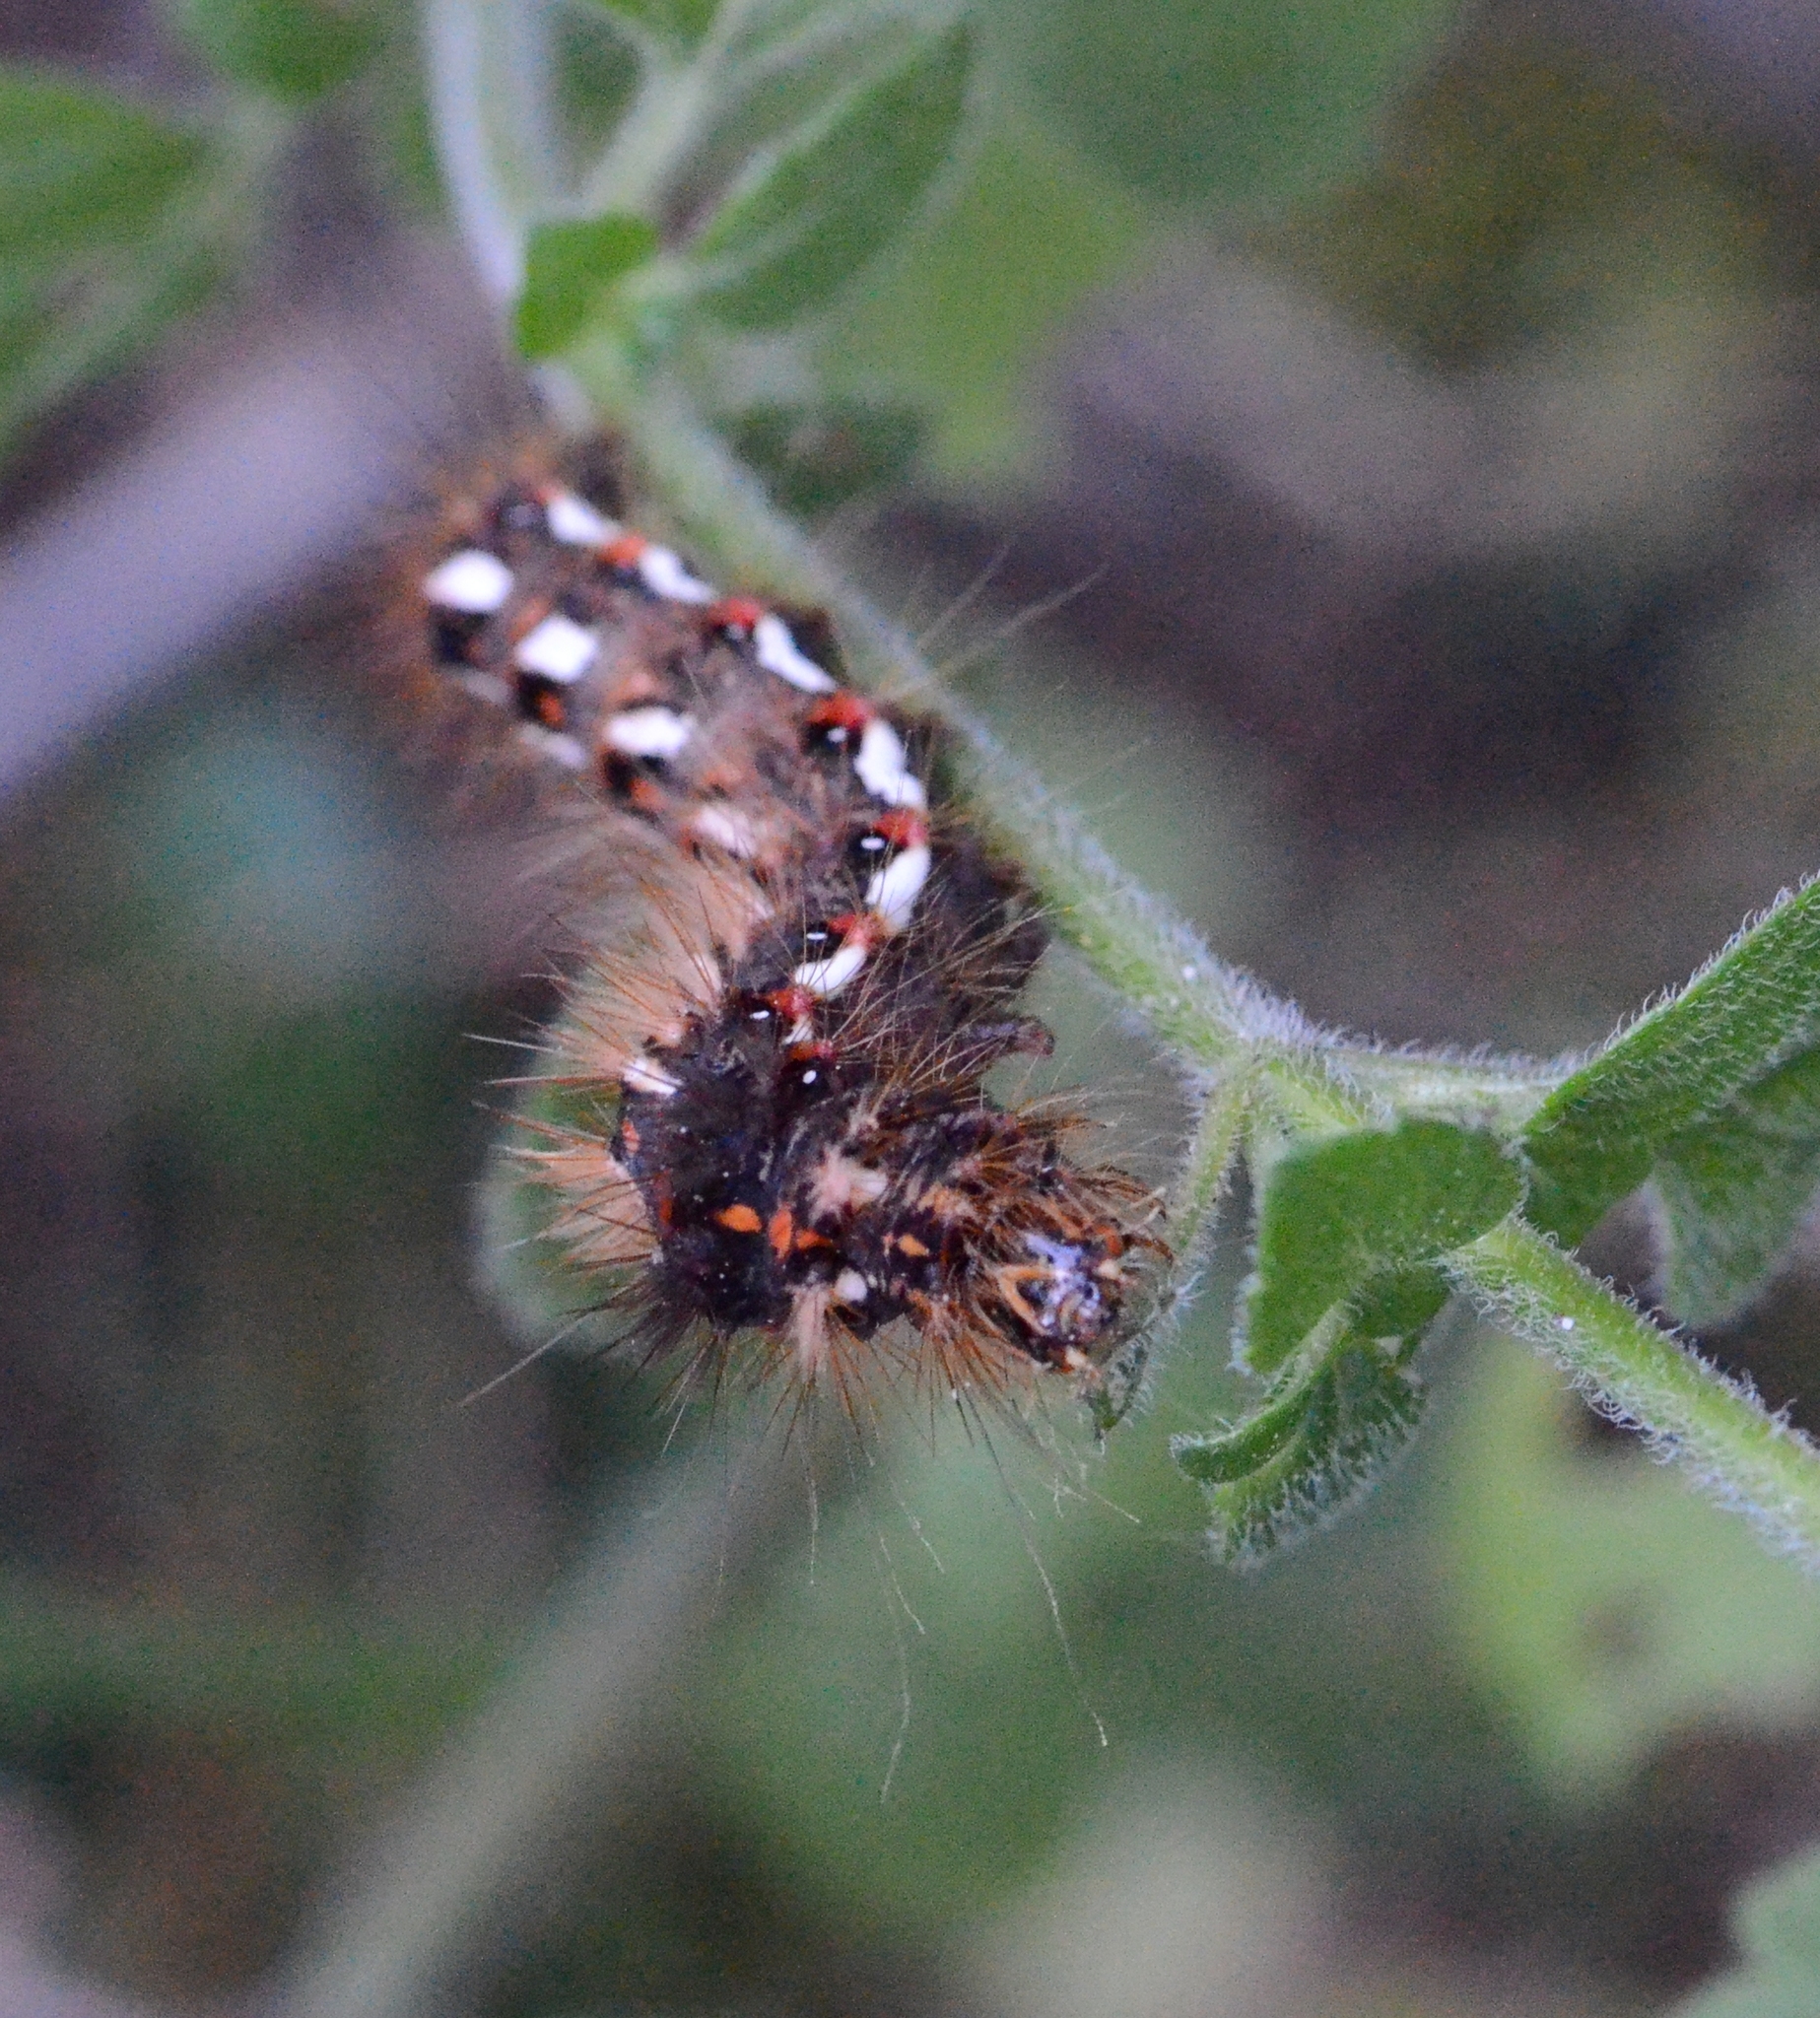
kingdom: Animalia
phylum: Arthropoda
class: Insecta
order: Lepidoptera
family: Noctuidae
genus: Acronicta
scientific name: Acronicta rumicis
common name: Knot grass
